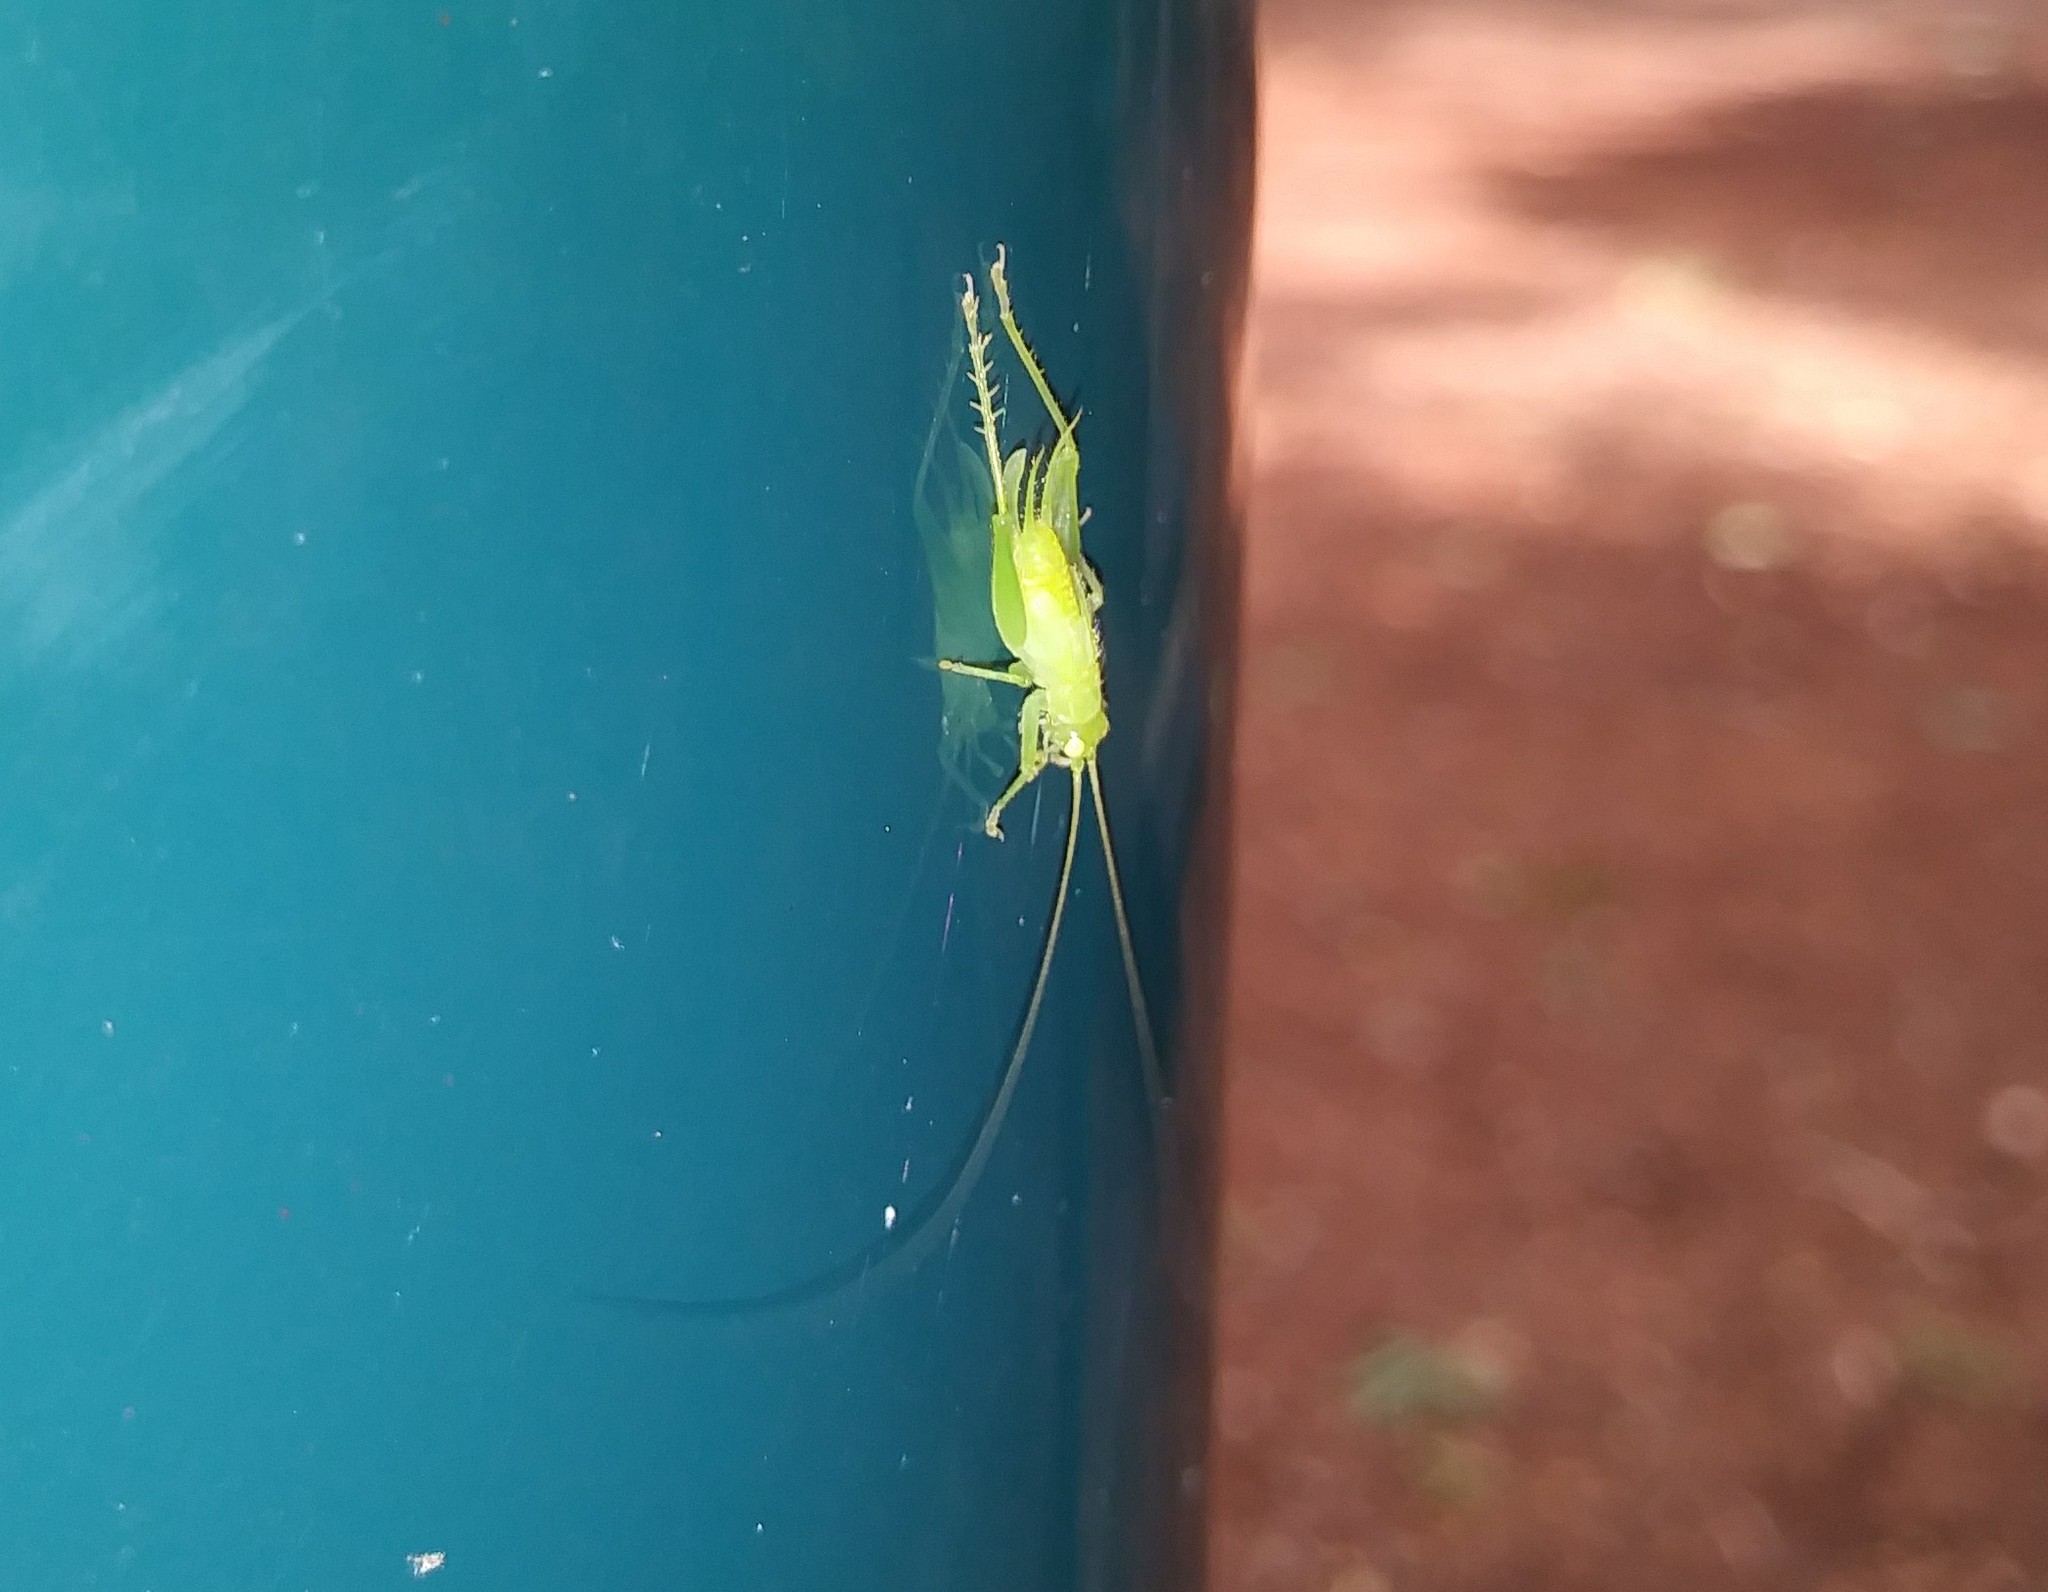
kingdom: Animalia
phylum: Arthropoda
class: Insecta
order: Orthoptera
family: Trigonidiidae
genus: Cyrtoxipha
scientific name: Cyrtoxipha columbiana
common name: Columbian trig
